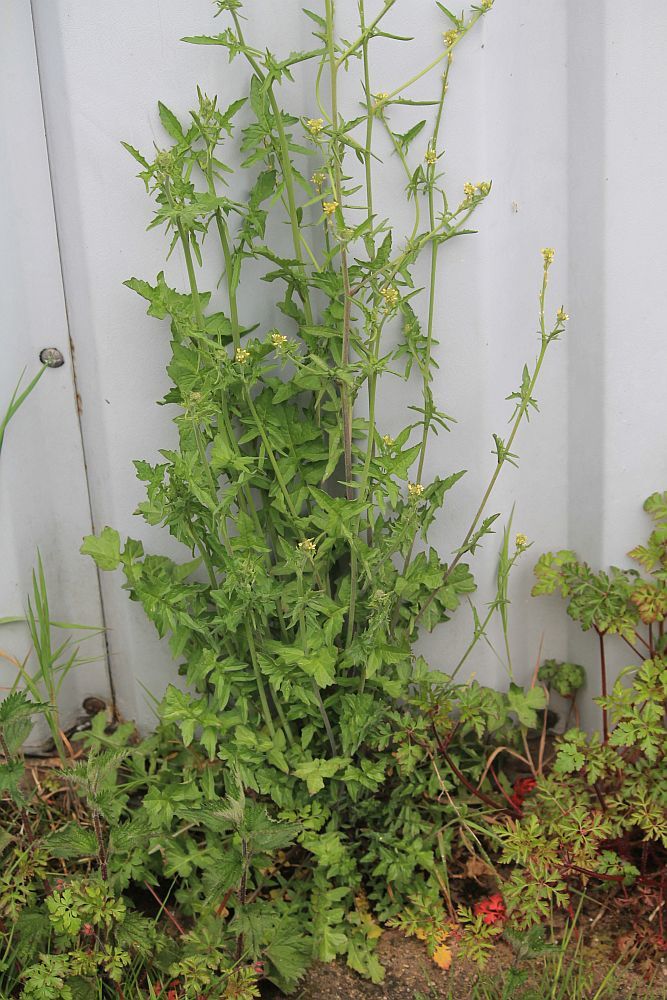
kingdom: Plantae
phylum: Tracheophyta
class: Magnoliopsida
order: Brassicales
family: Brassicaceae
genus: Sisymbrium
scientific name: Sisymbrium officinale
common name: Hedge mustard
